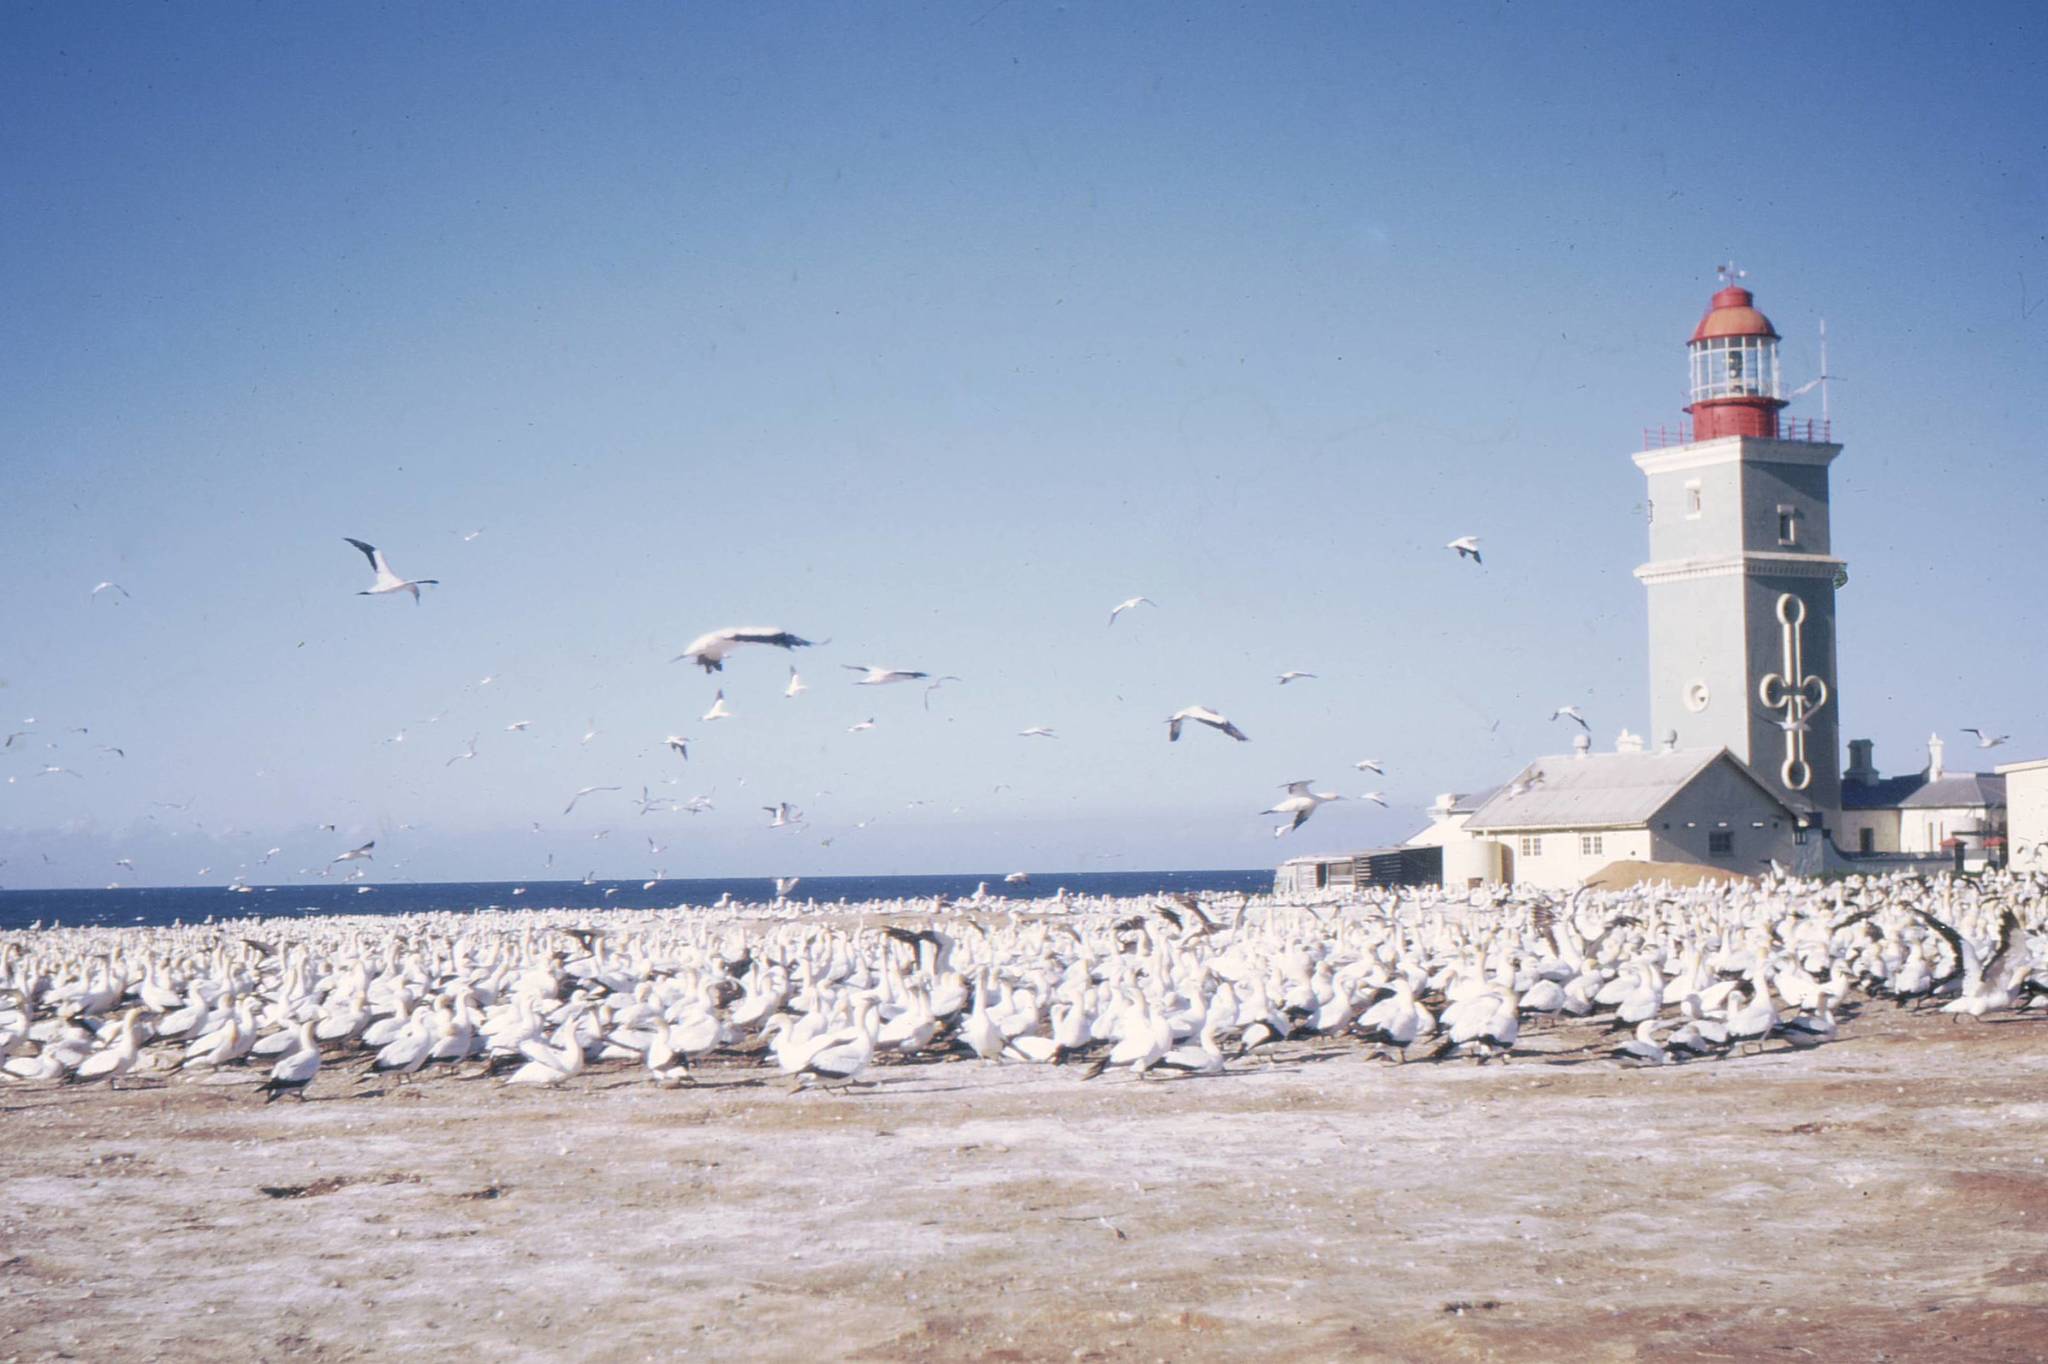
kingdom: Animalia
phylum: Chordata
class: Aves
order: Suliformes
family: Sulidae
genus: Morus
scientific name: Morus capensis
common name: Cape gannet
